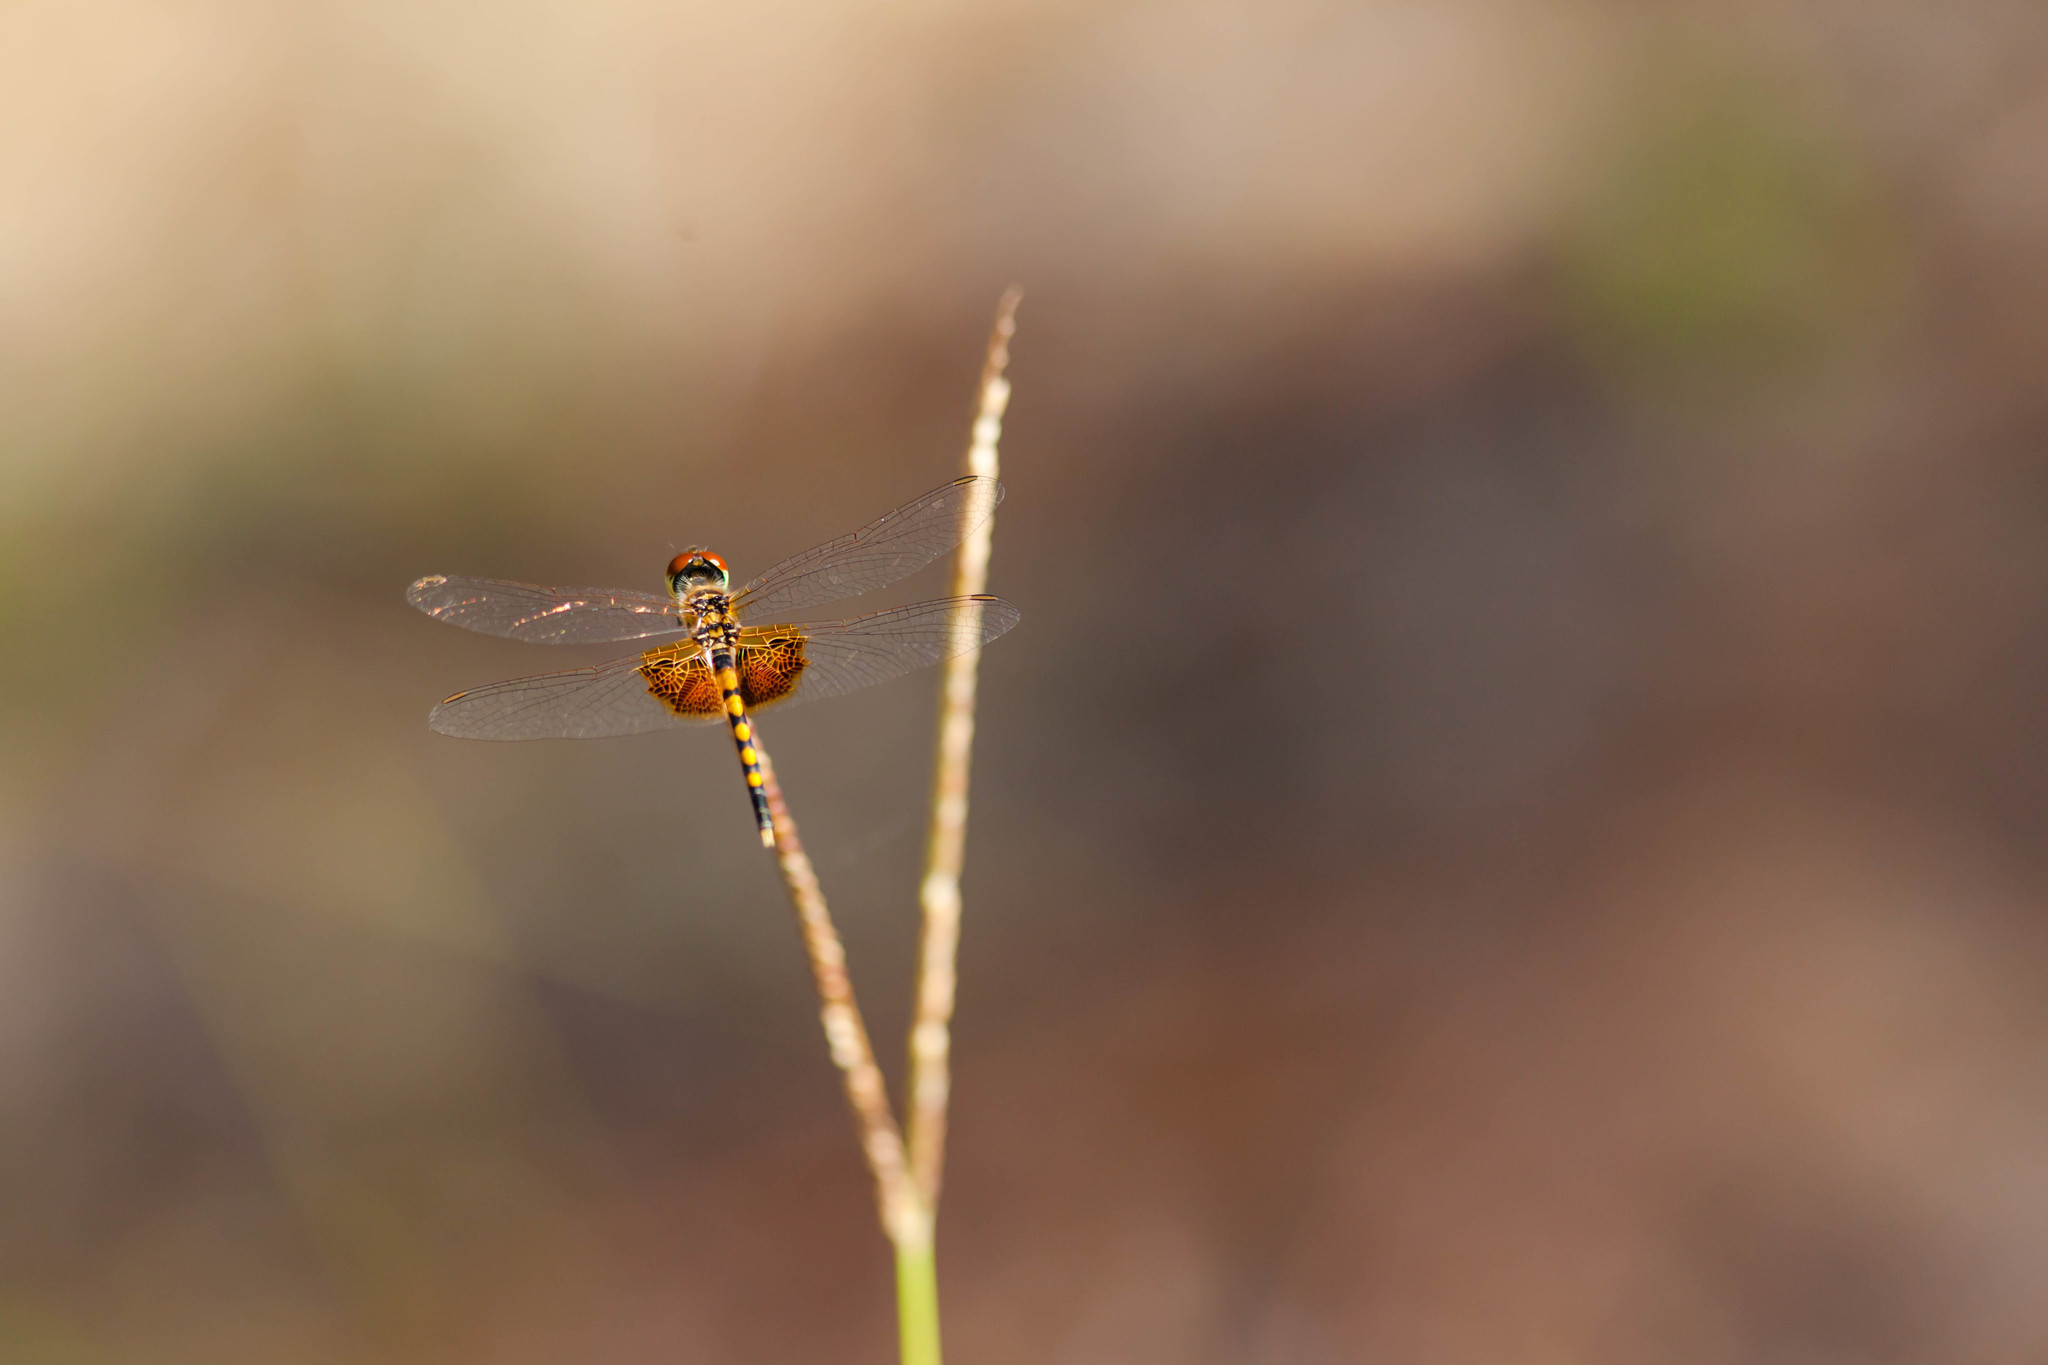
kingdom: Animalia
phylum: Arthropoda
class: Insecta
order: Odonata
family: Libellulidae
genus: Celithemis
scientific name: Celithemis amanda
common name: Amanda's pennant
